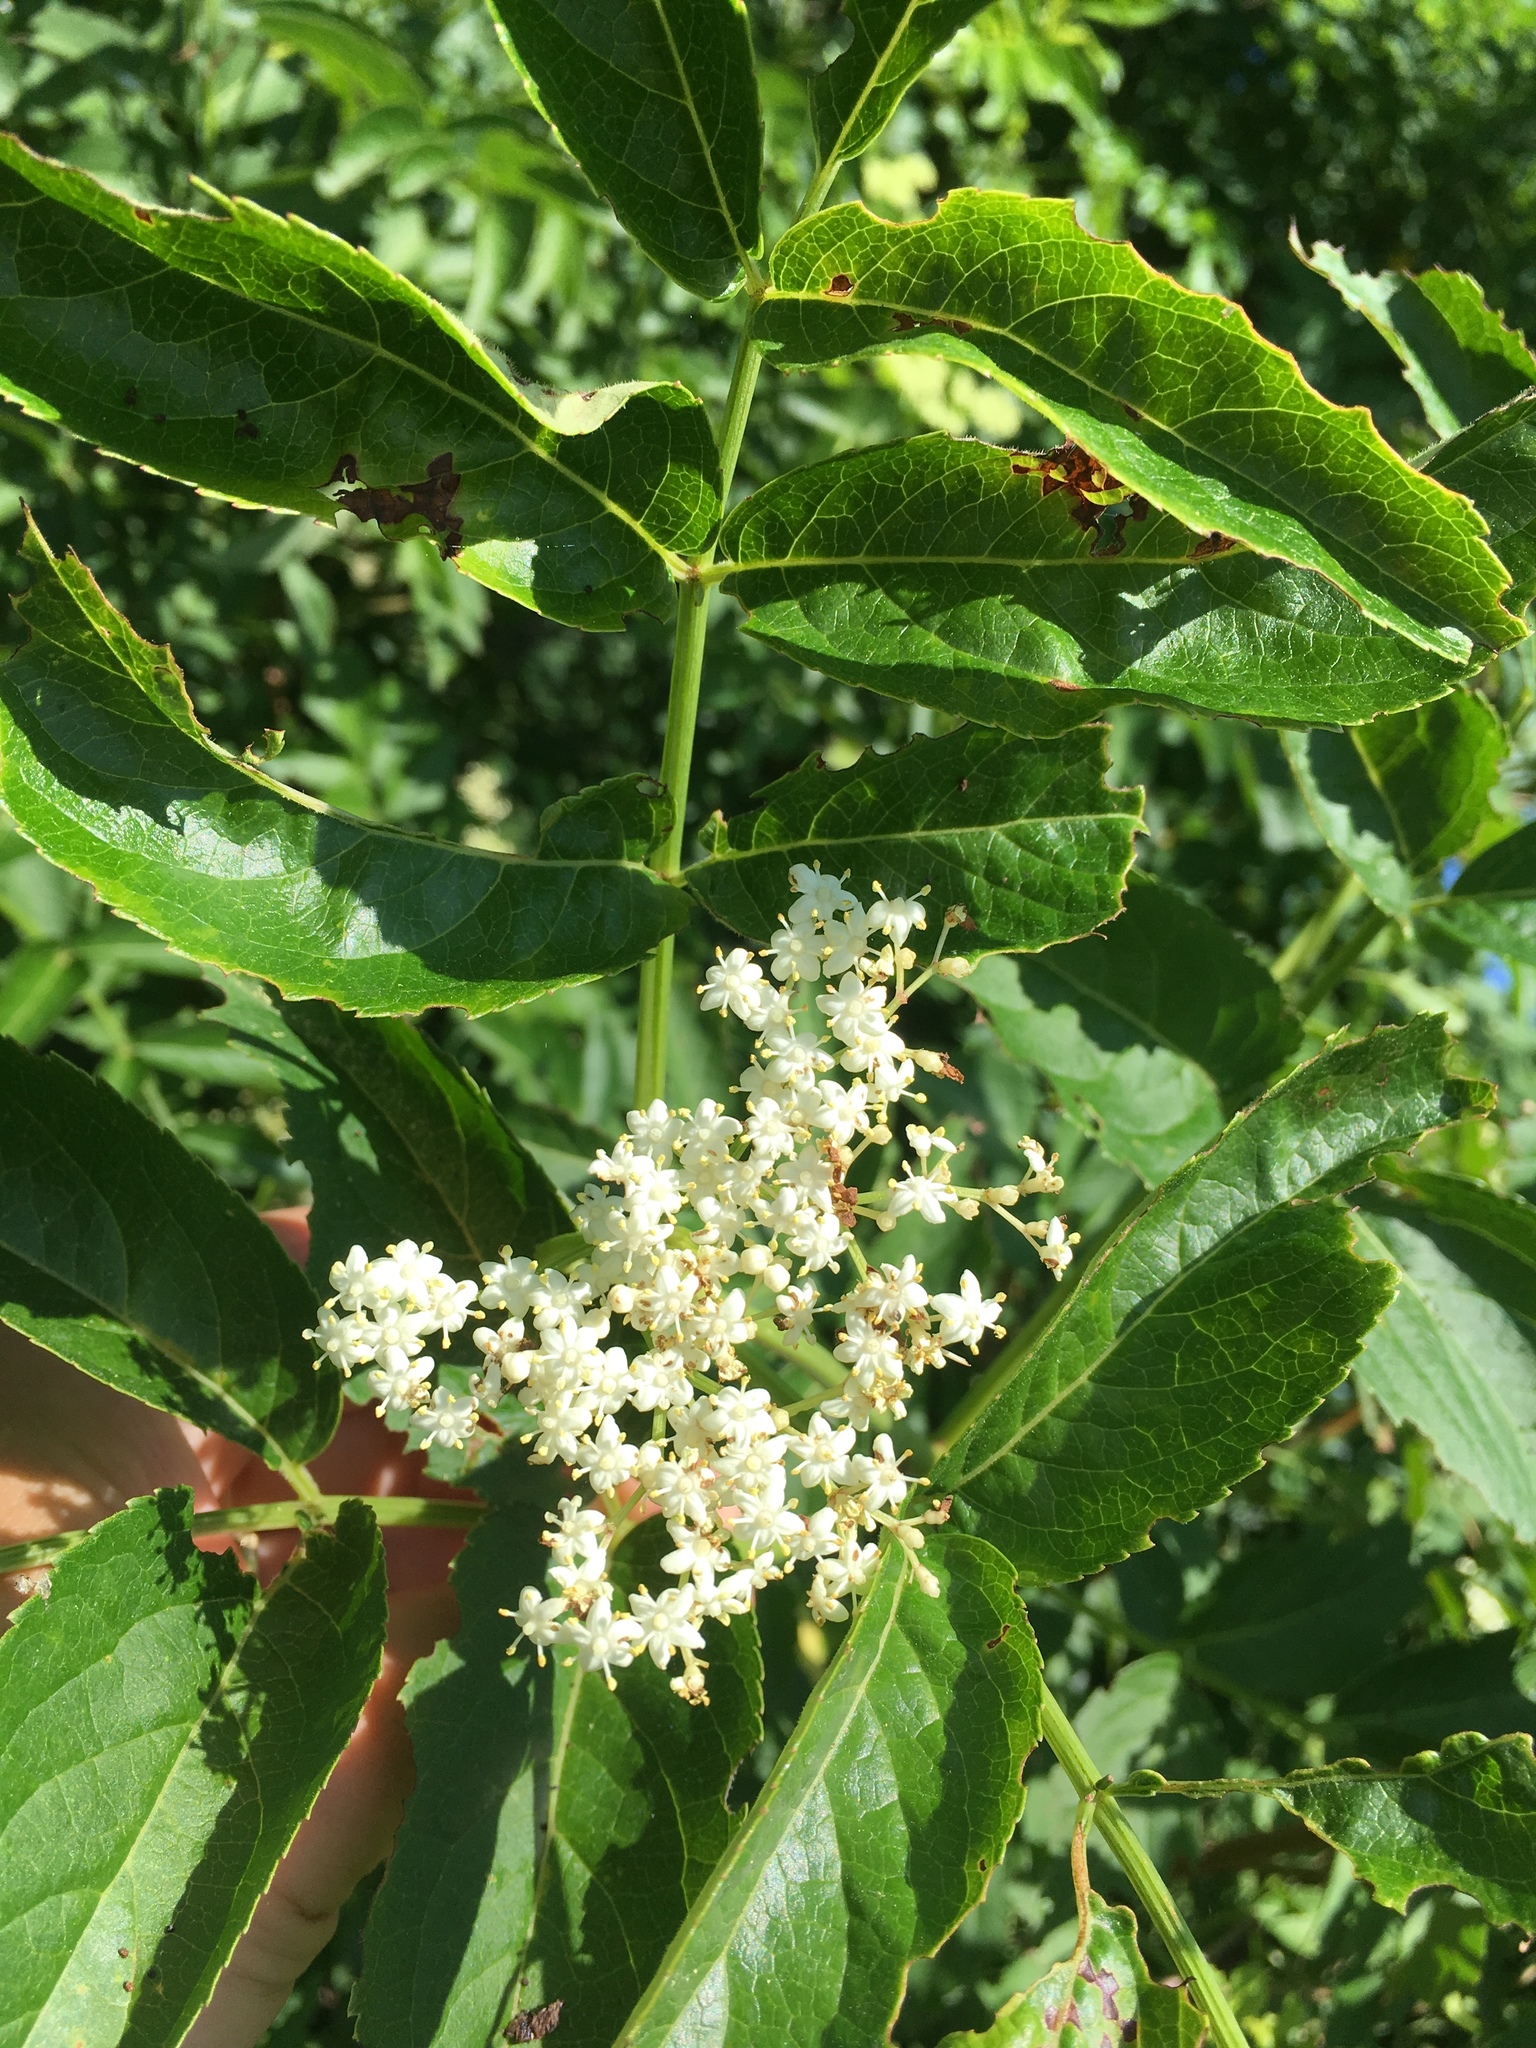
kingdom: Plantae
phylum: Tracheophyta
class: Magnoliopsida
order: Dipsacales
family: Viburnaceae
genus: Sambucus
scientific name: Sambucus canadensis
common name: American elder
